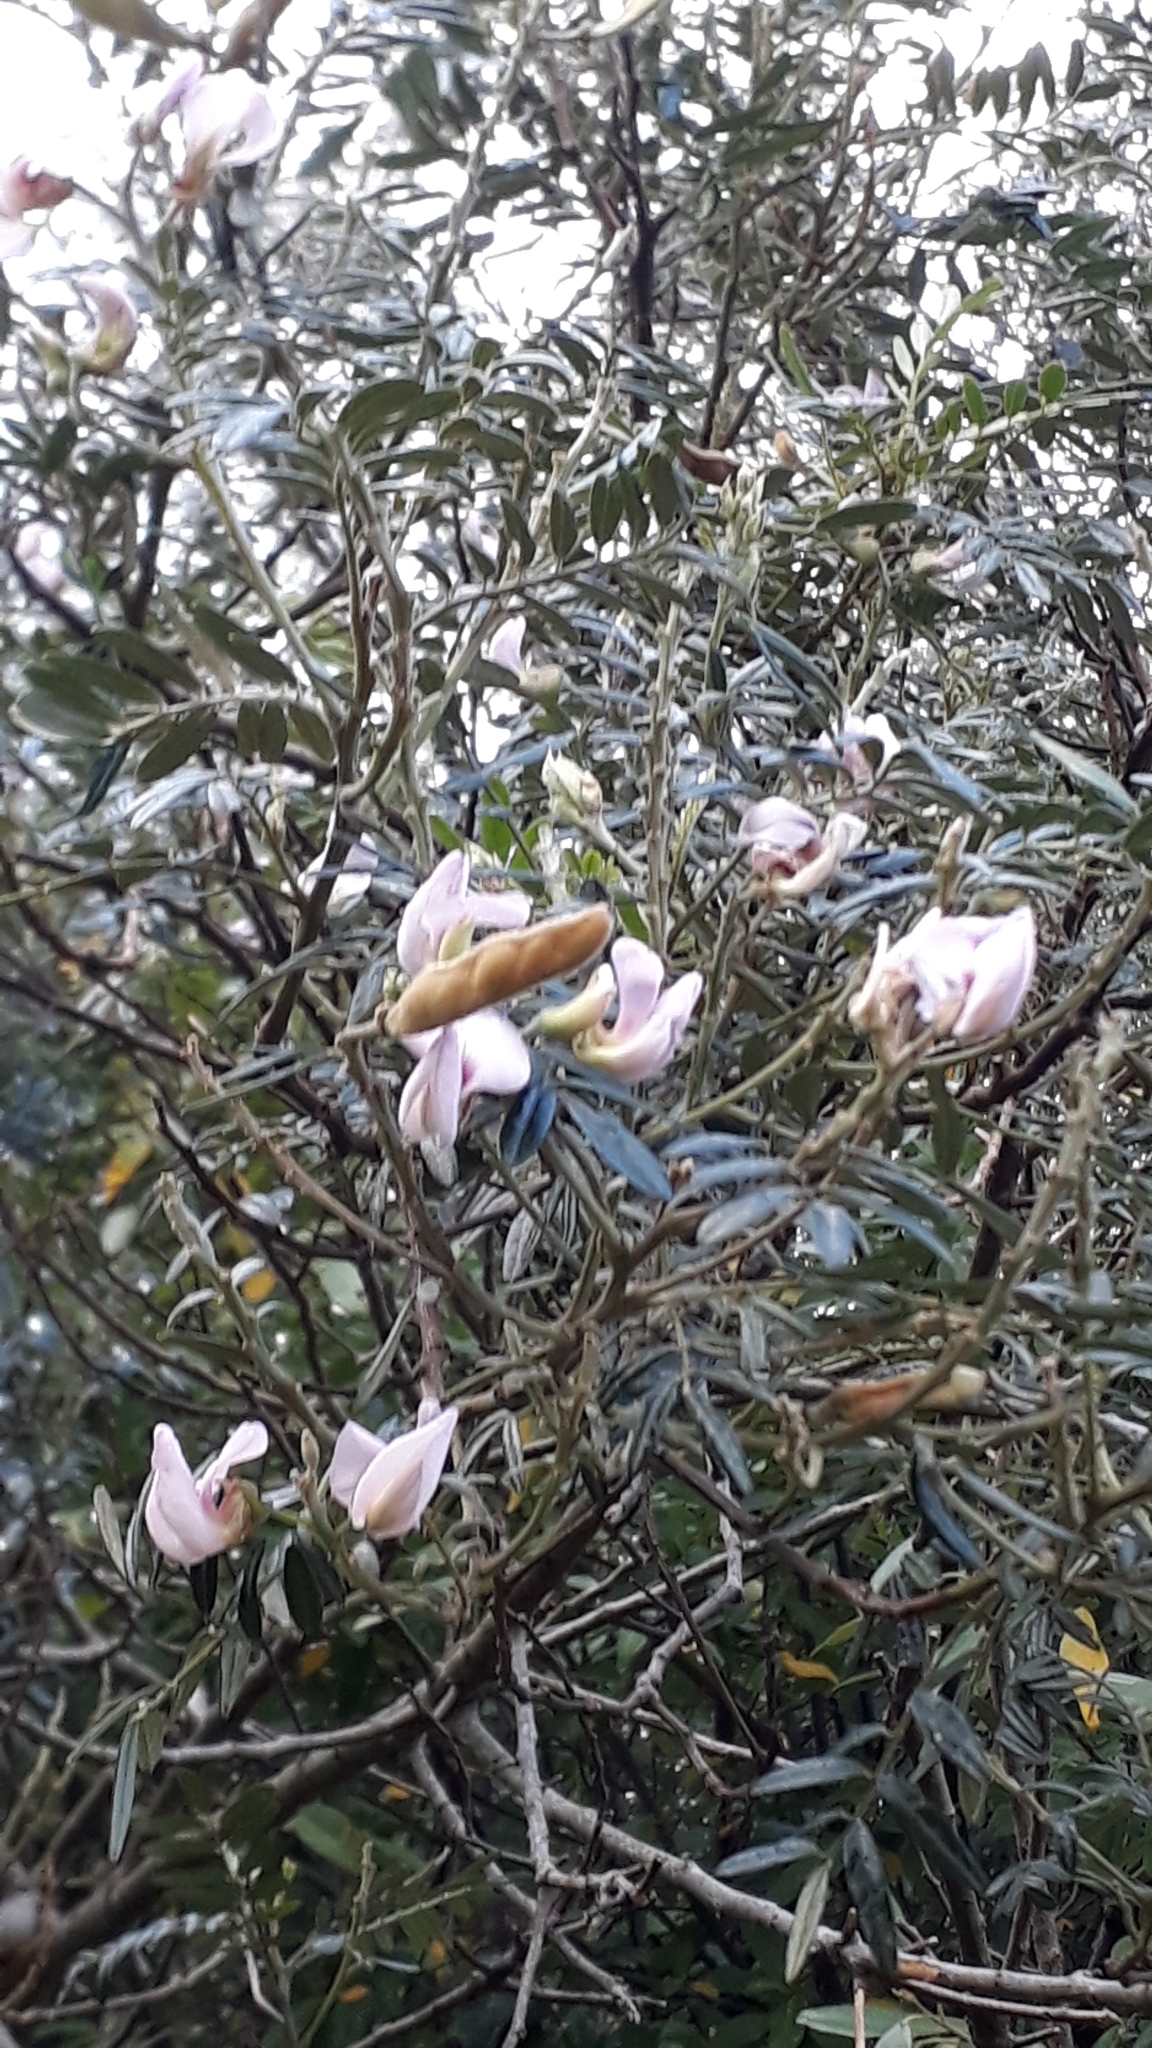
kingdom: Plantae
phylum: Tracheophyta
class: Magnoliopsida
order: Fabales
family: Fabaceae
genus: Virgilia
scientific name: Virgilia oroboides
